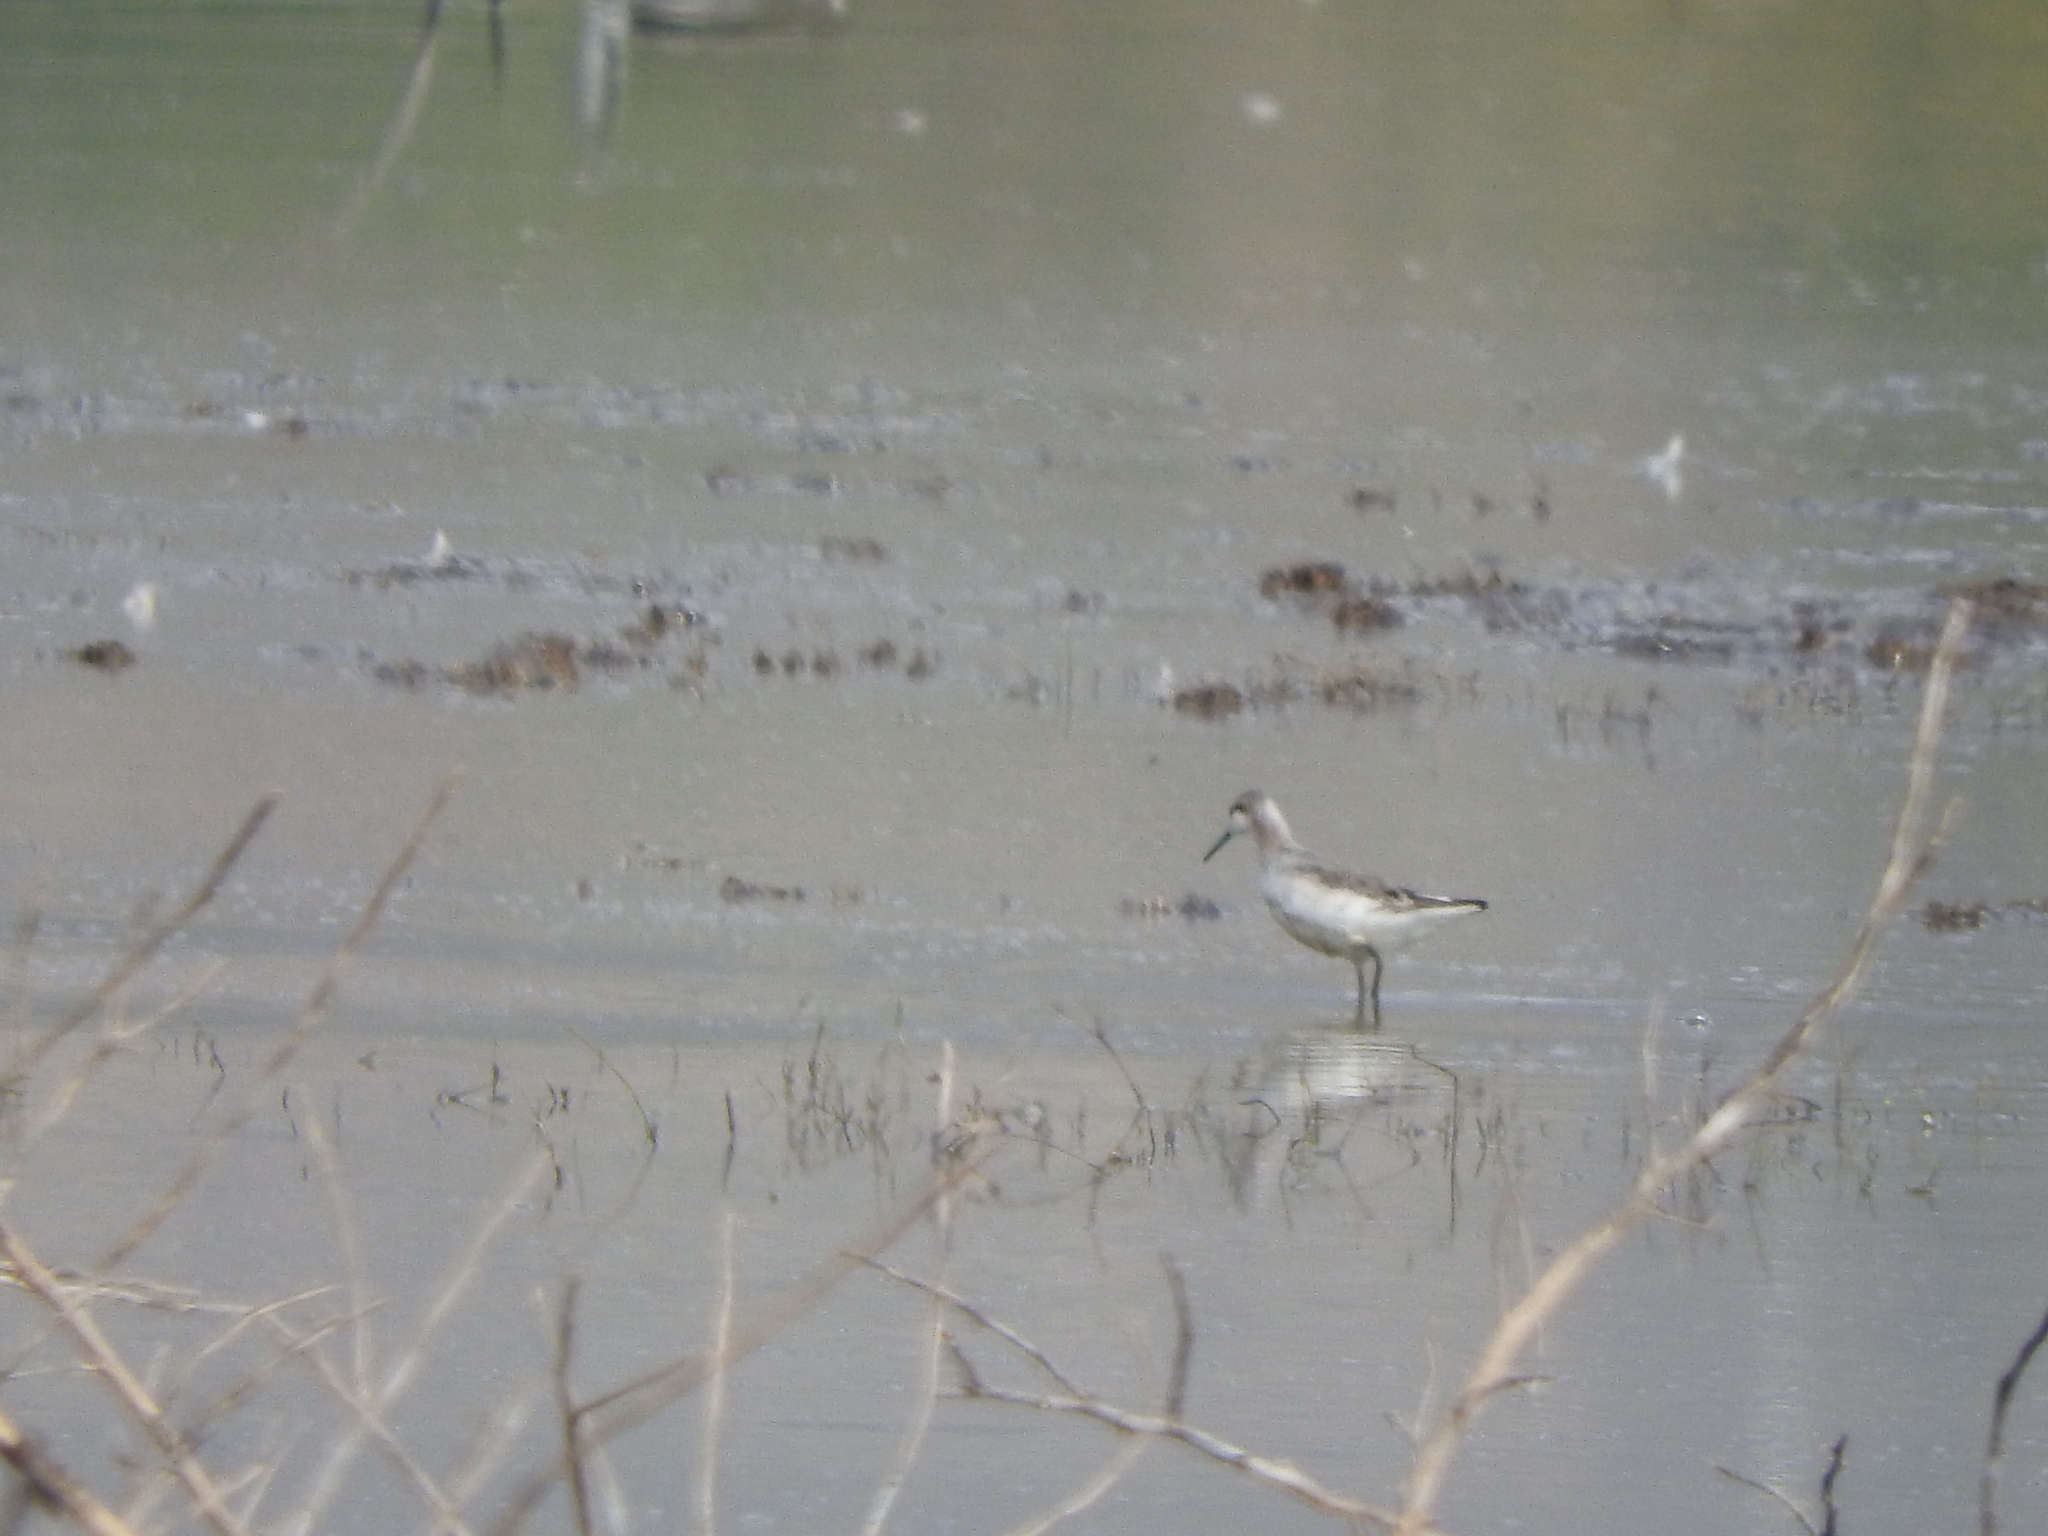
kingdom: Animalia
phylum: Chordata
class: Aves
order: Charadriiformes
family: Scolopacidae
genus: Phalaropus
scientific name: Phalaropus tricolor
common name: Wilson's phalarope
